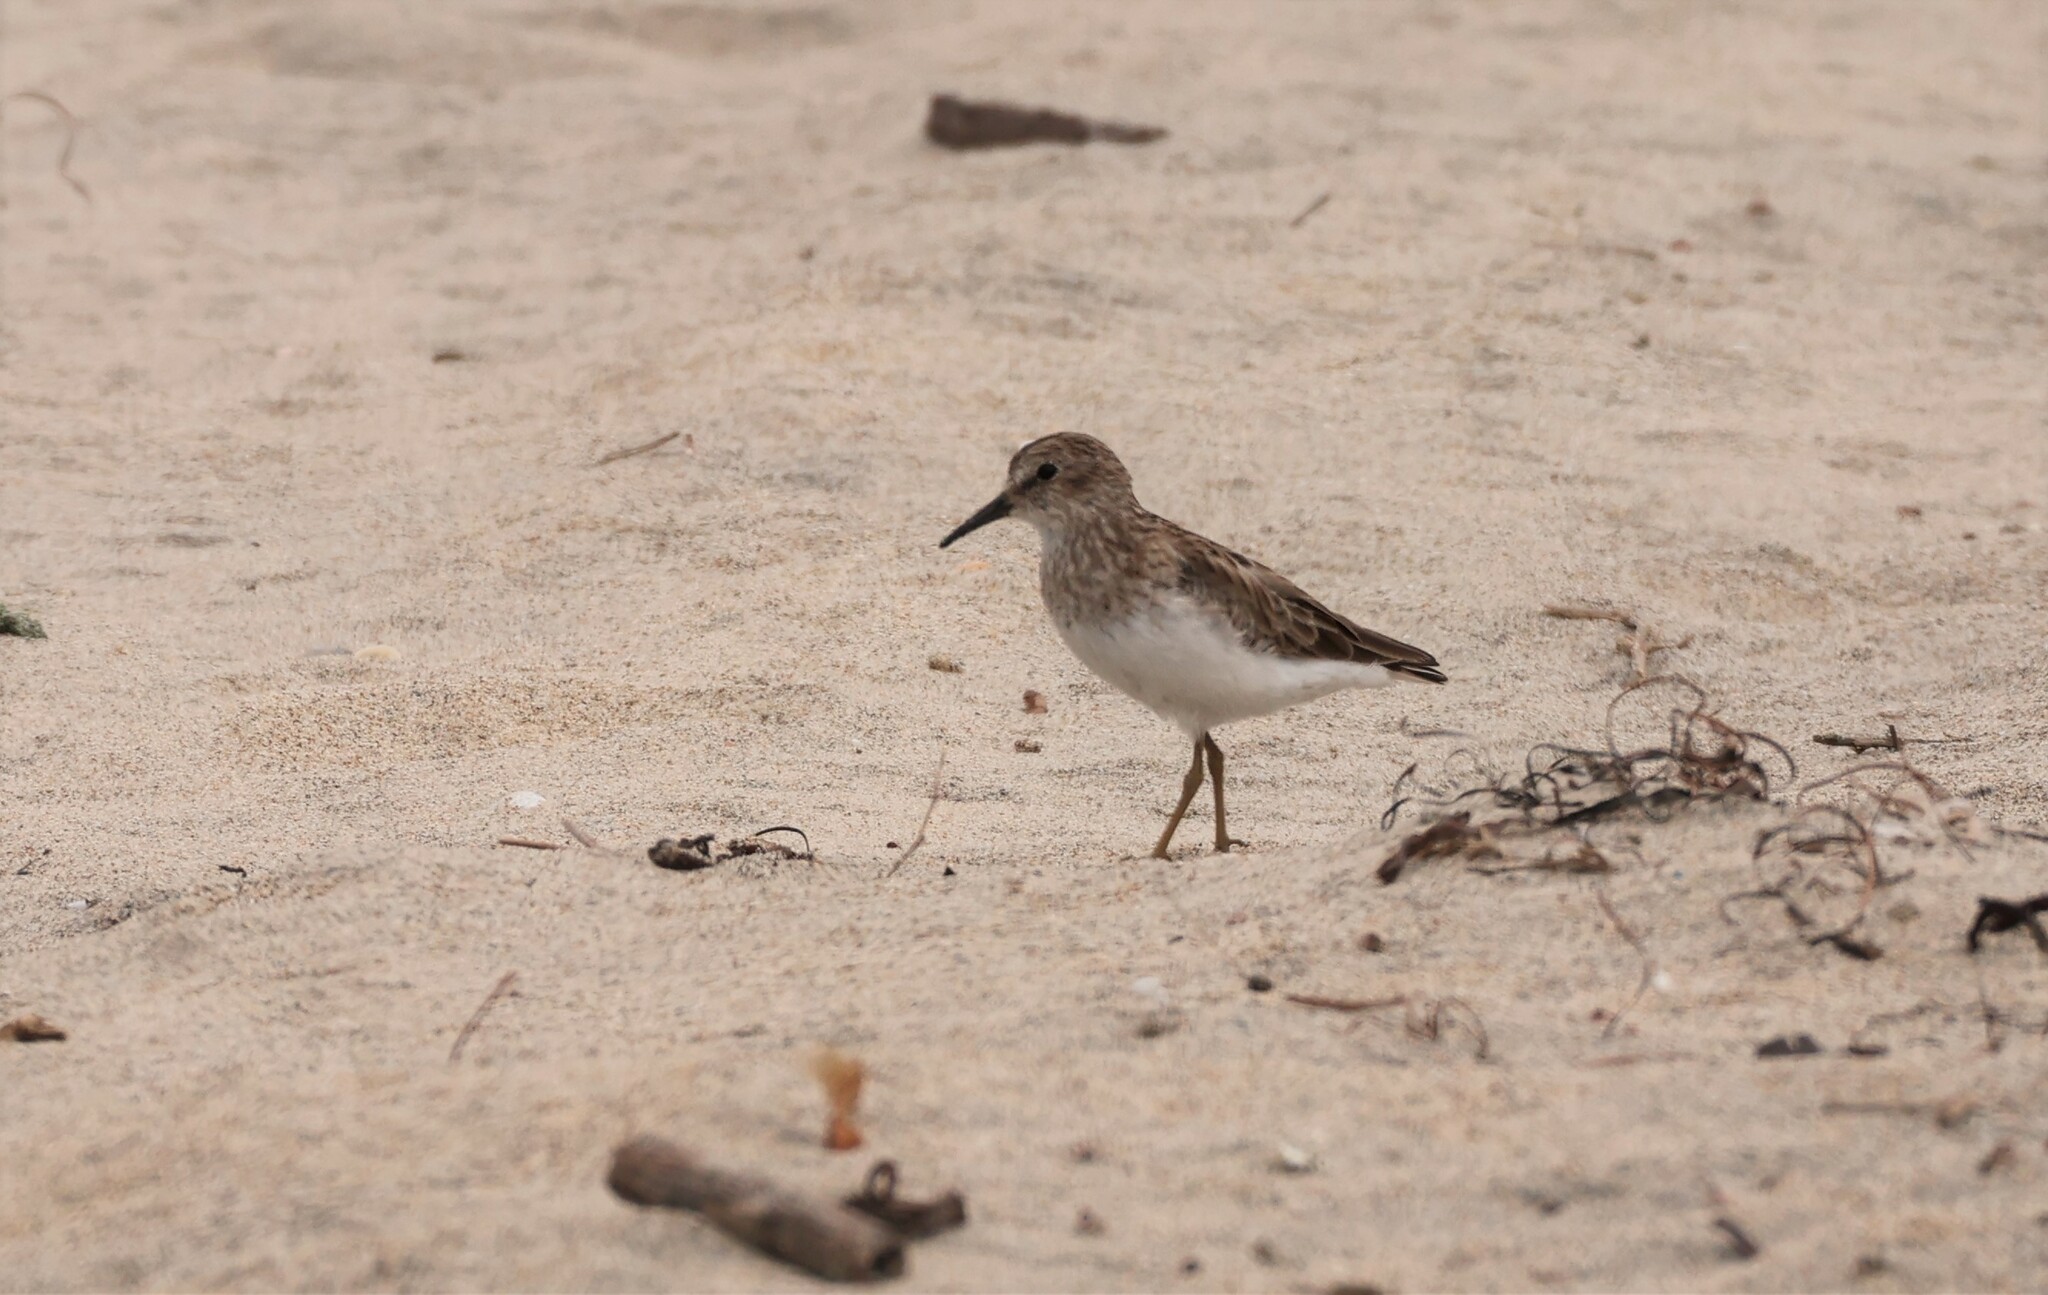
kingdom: Animalia
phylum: Chordata
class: Aves
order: Charadriiformes
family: Scolopacidae
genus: Calidris
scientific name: Calidris minutilla
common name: Least sandpiper
